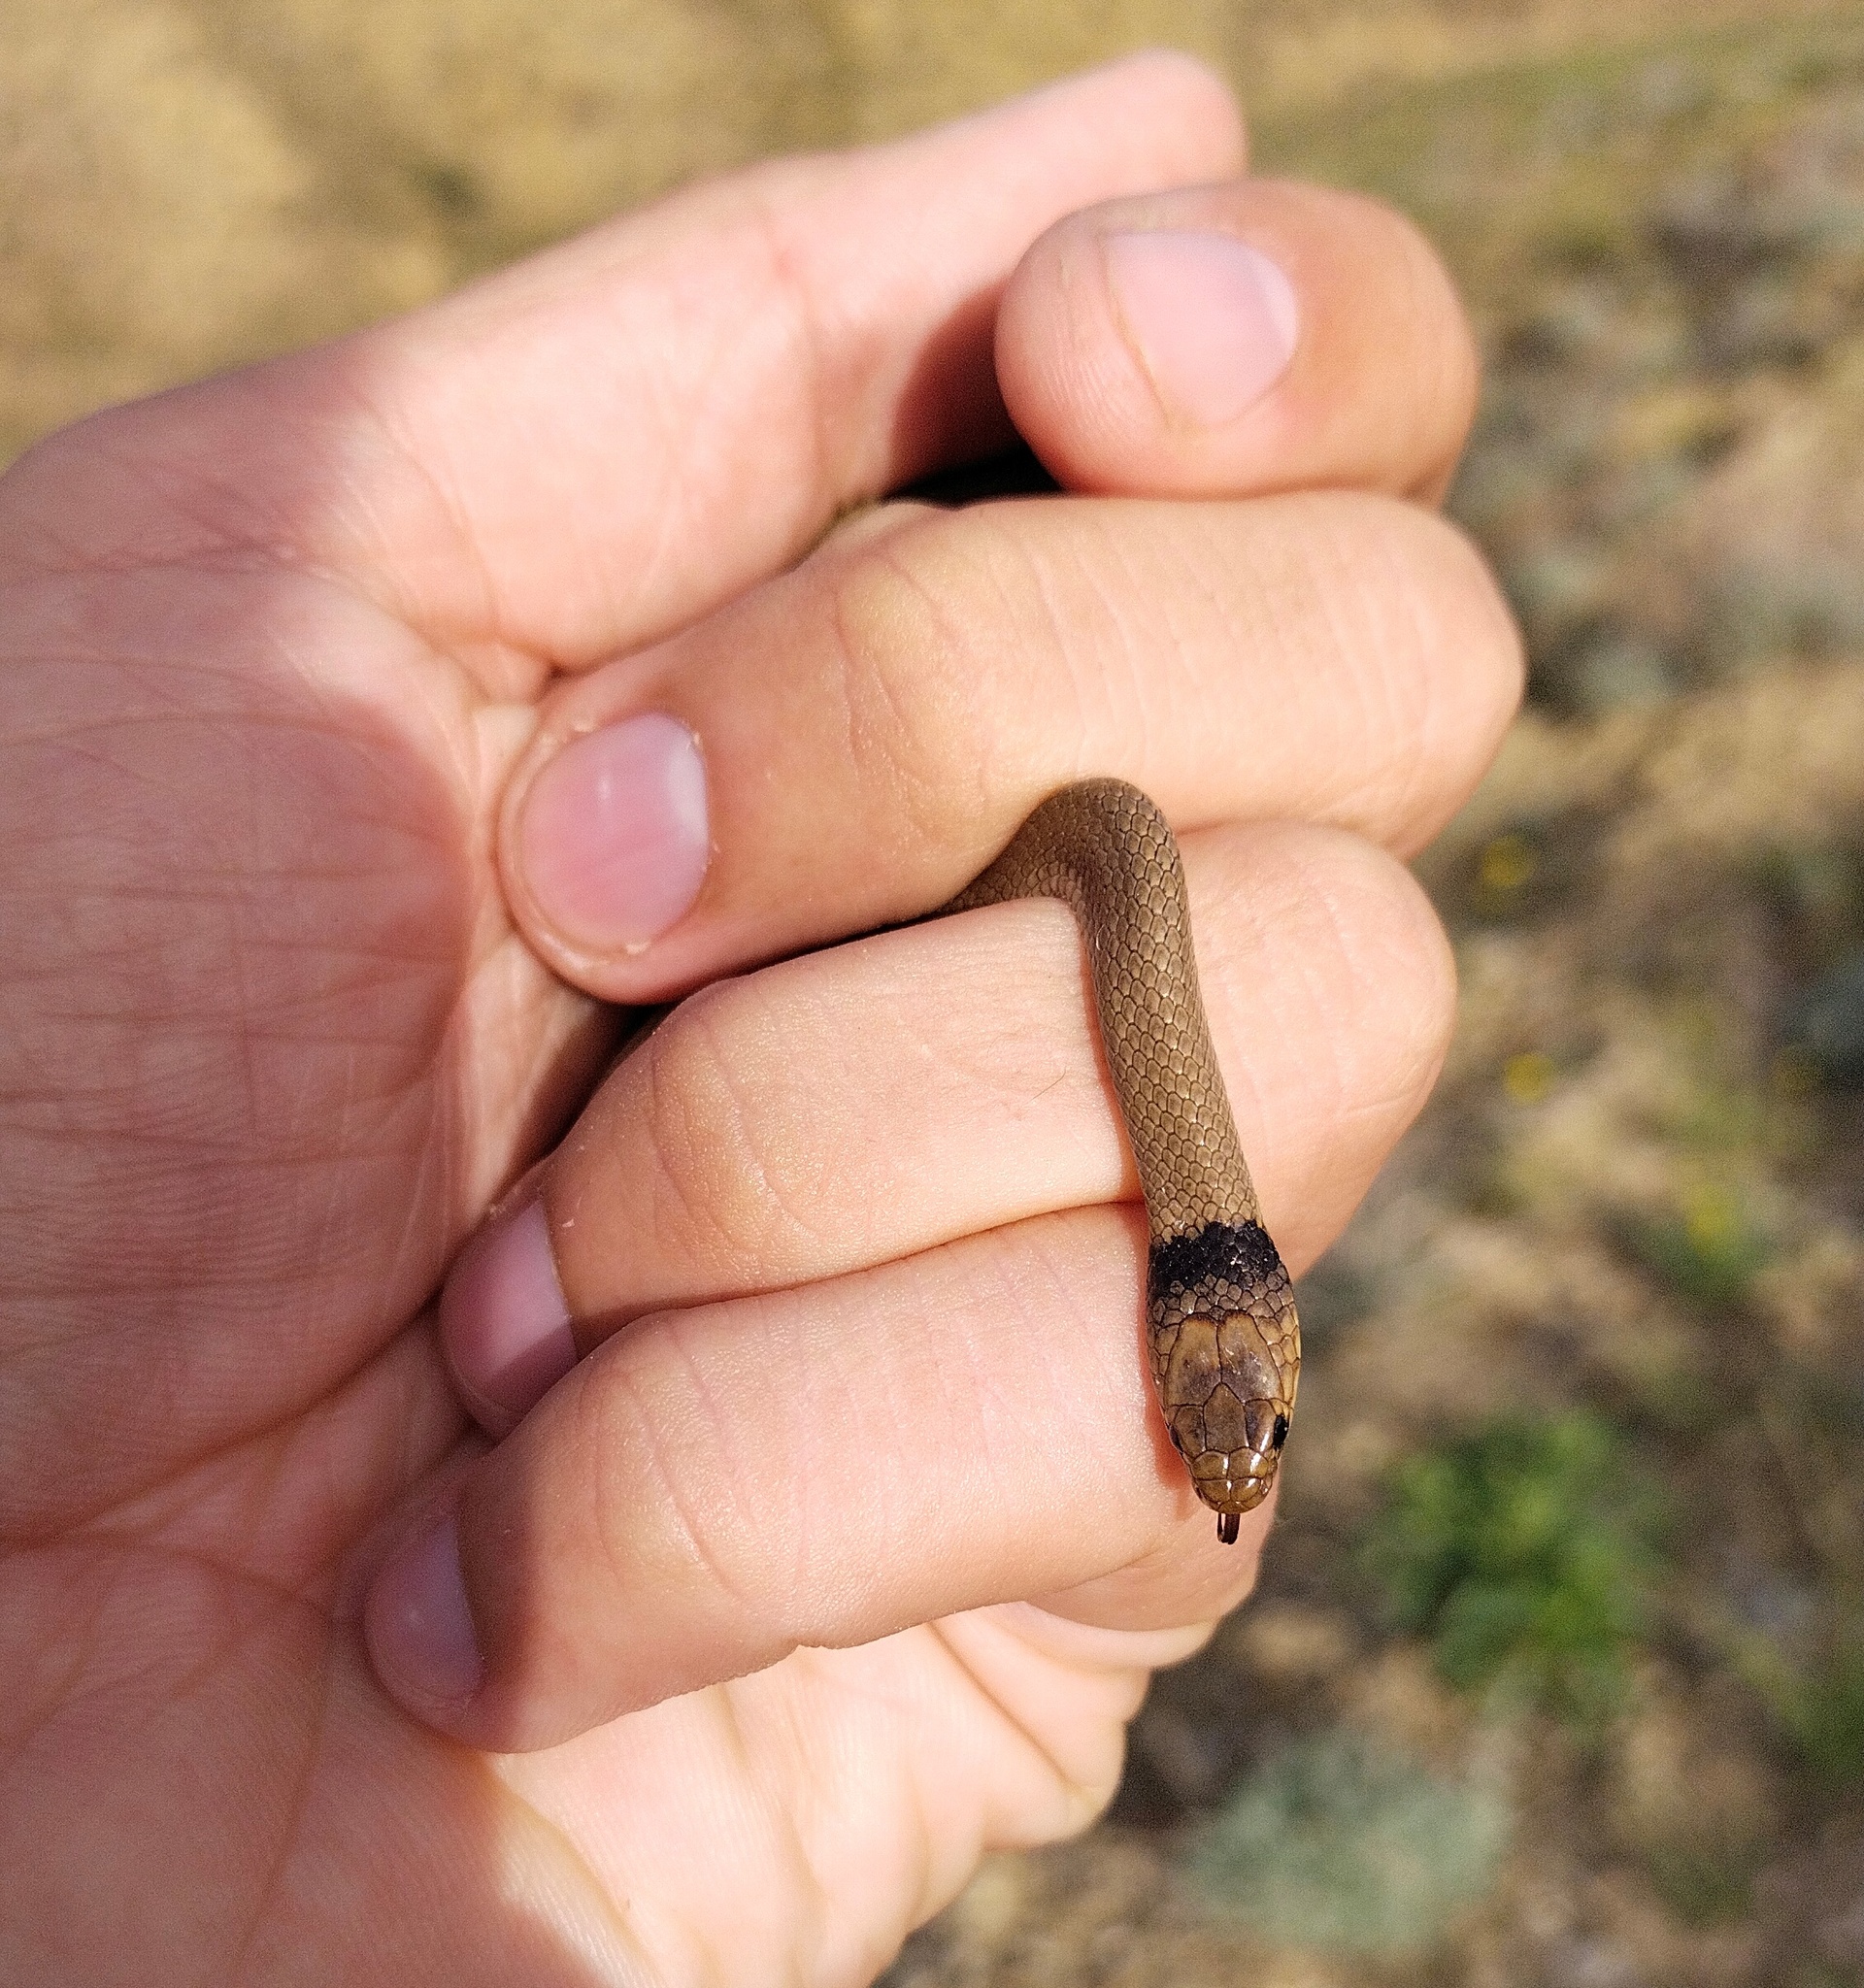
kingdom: Animalia
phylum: Chordata
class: Squamata
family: Colubridae
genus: Eirenis
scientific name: Eirenis collaris
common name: Collared dwarf racer
